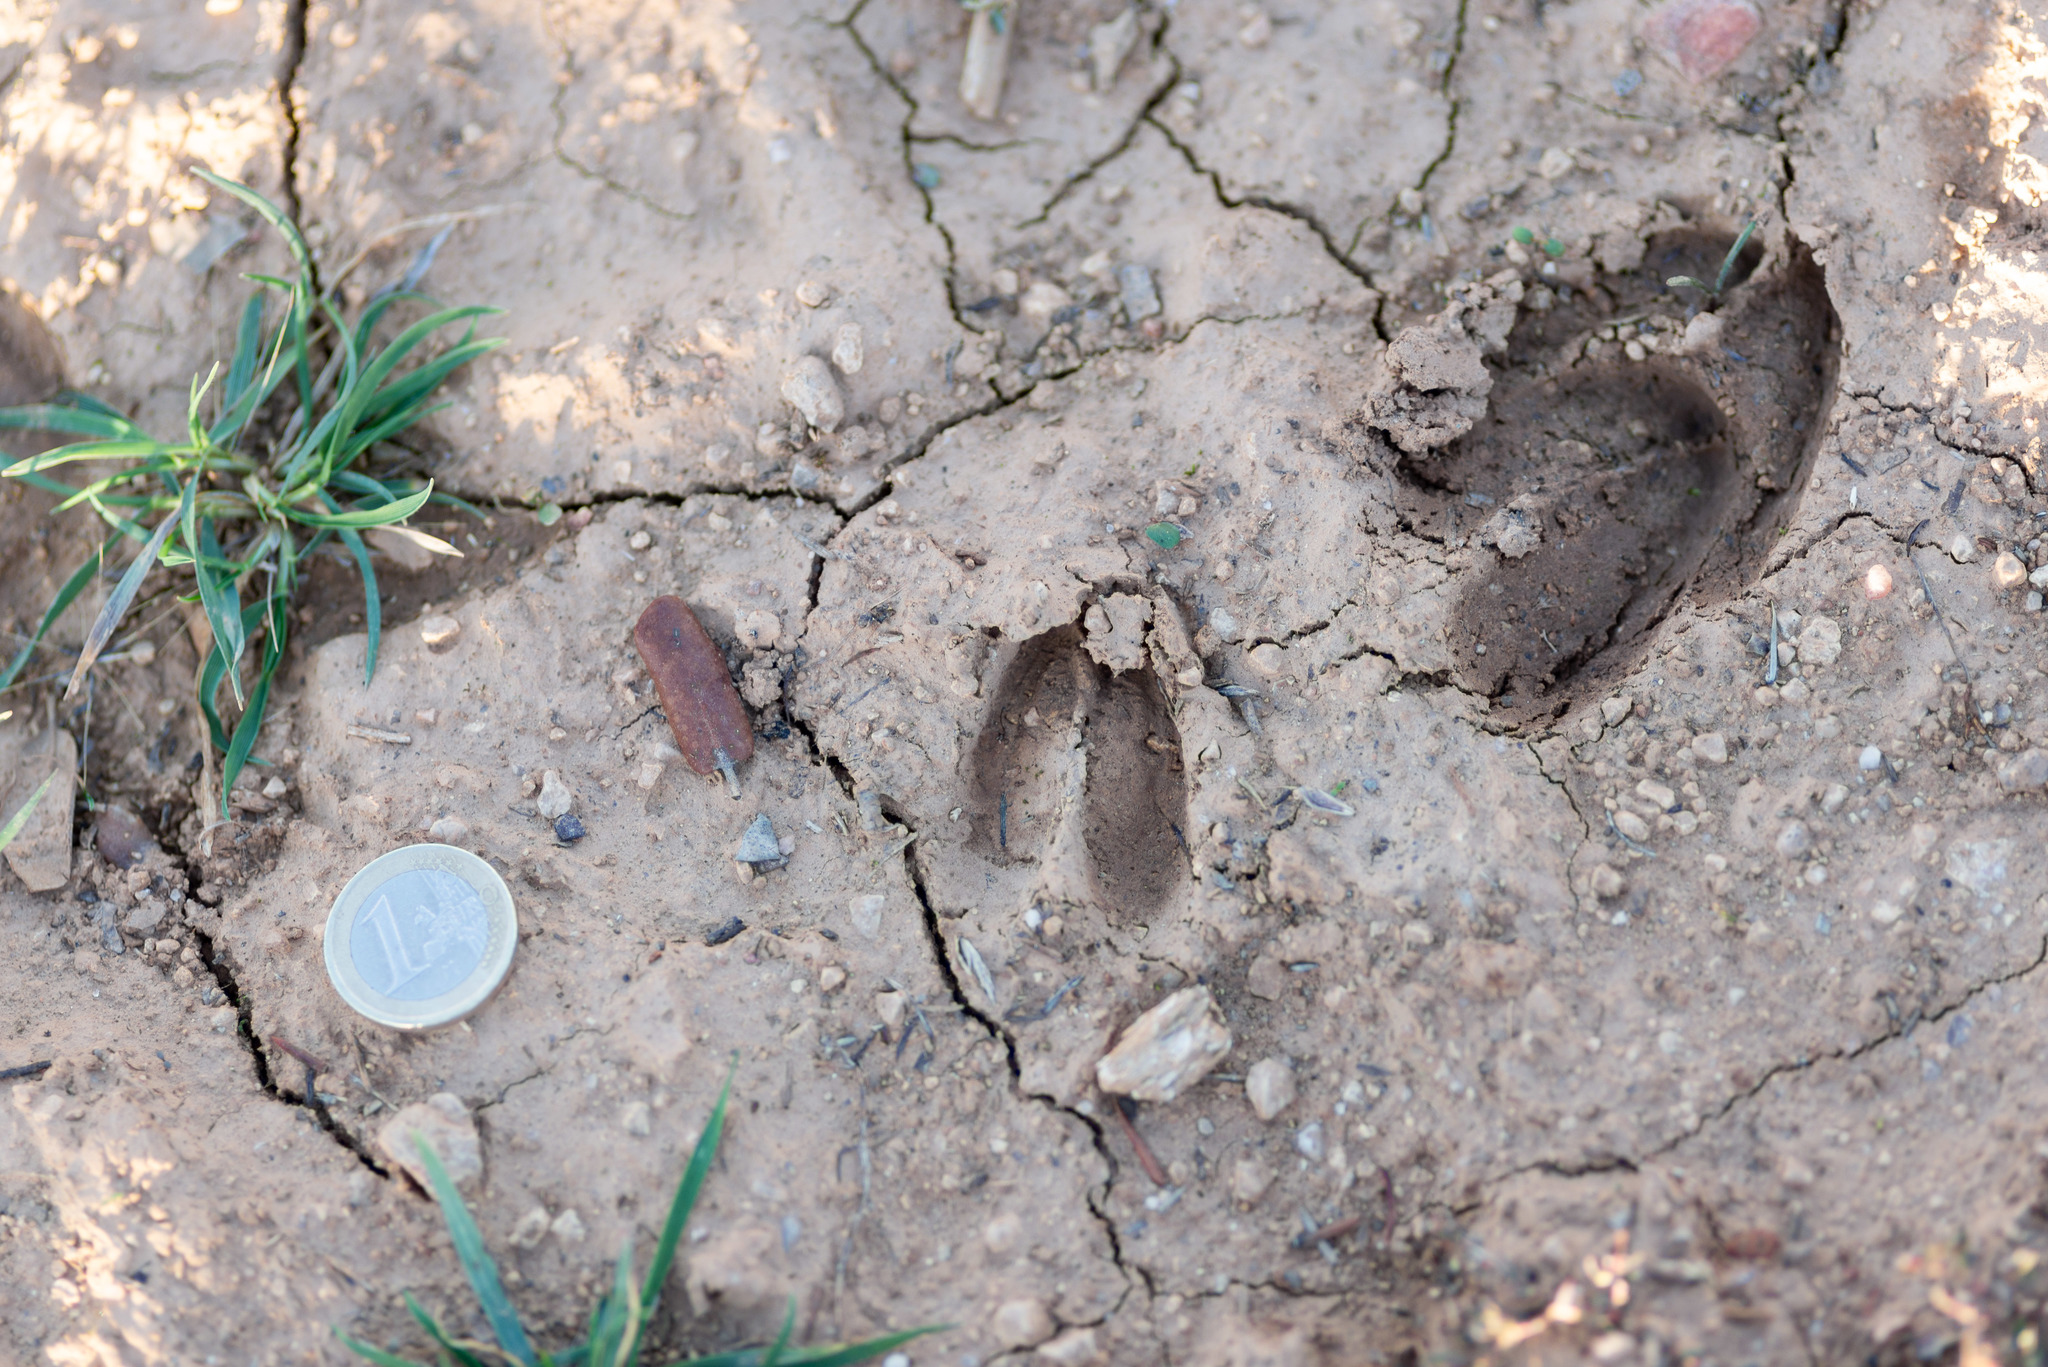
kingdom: Animalia
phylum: Chordata
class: Mammalia
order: Artiodactyla
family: Cervidae
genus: Capreolus
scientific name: Capreolus capreolus
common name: Western roe deer
